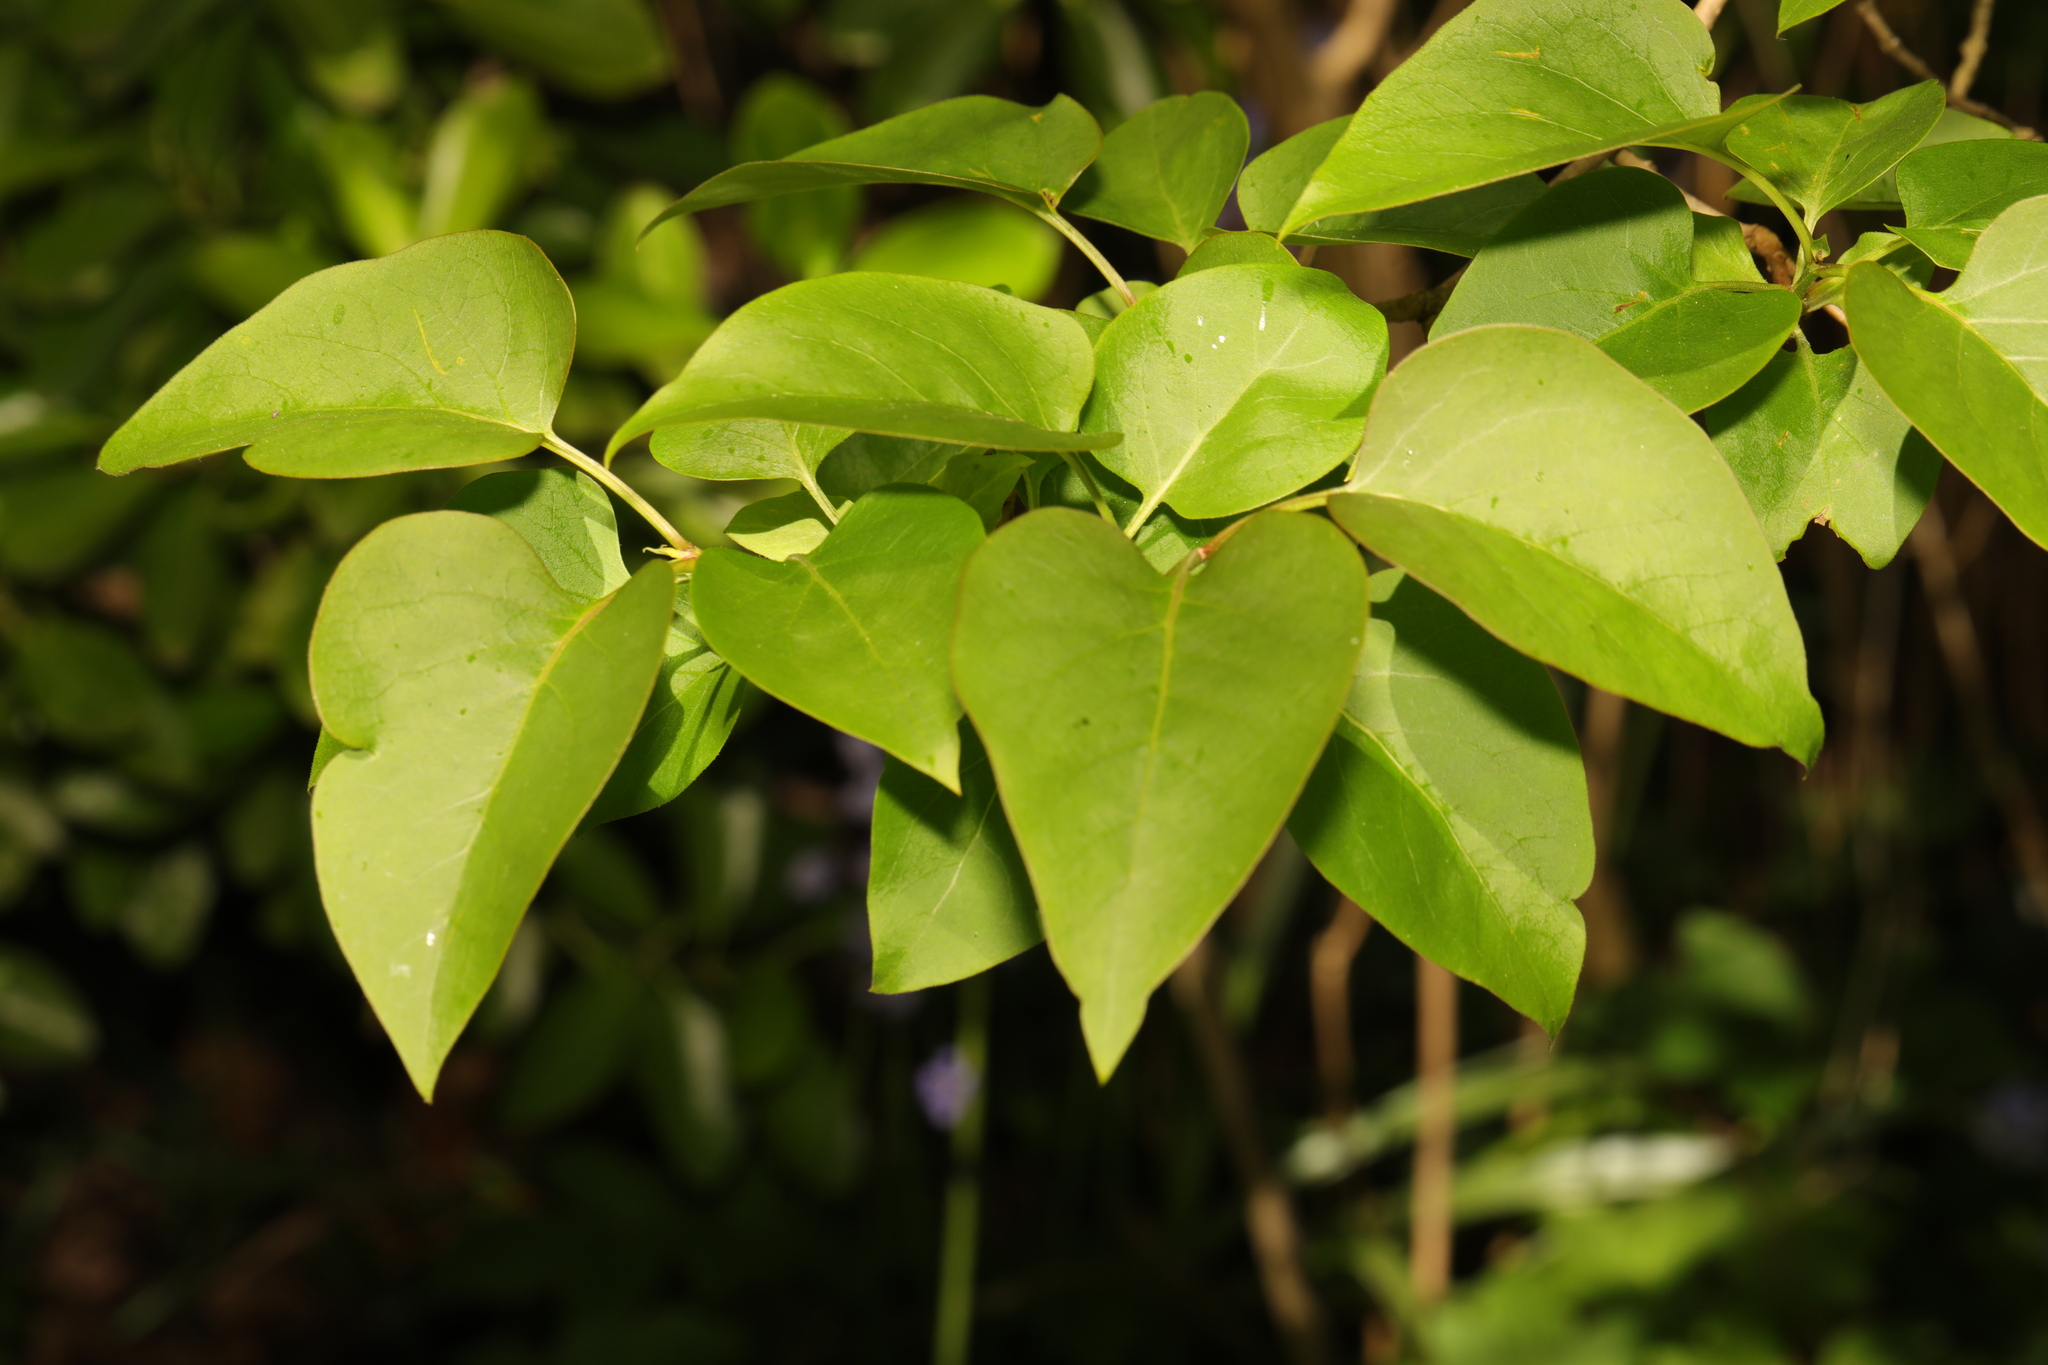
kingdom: Plantae
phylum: Tracheophyta
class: Magnoliopsida
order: Fagales
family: Betulaceae
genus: Alnus
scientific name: Alnus cordata
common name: Italian alder
